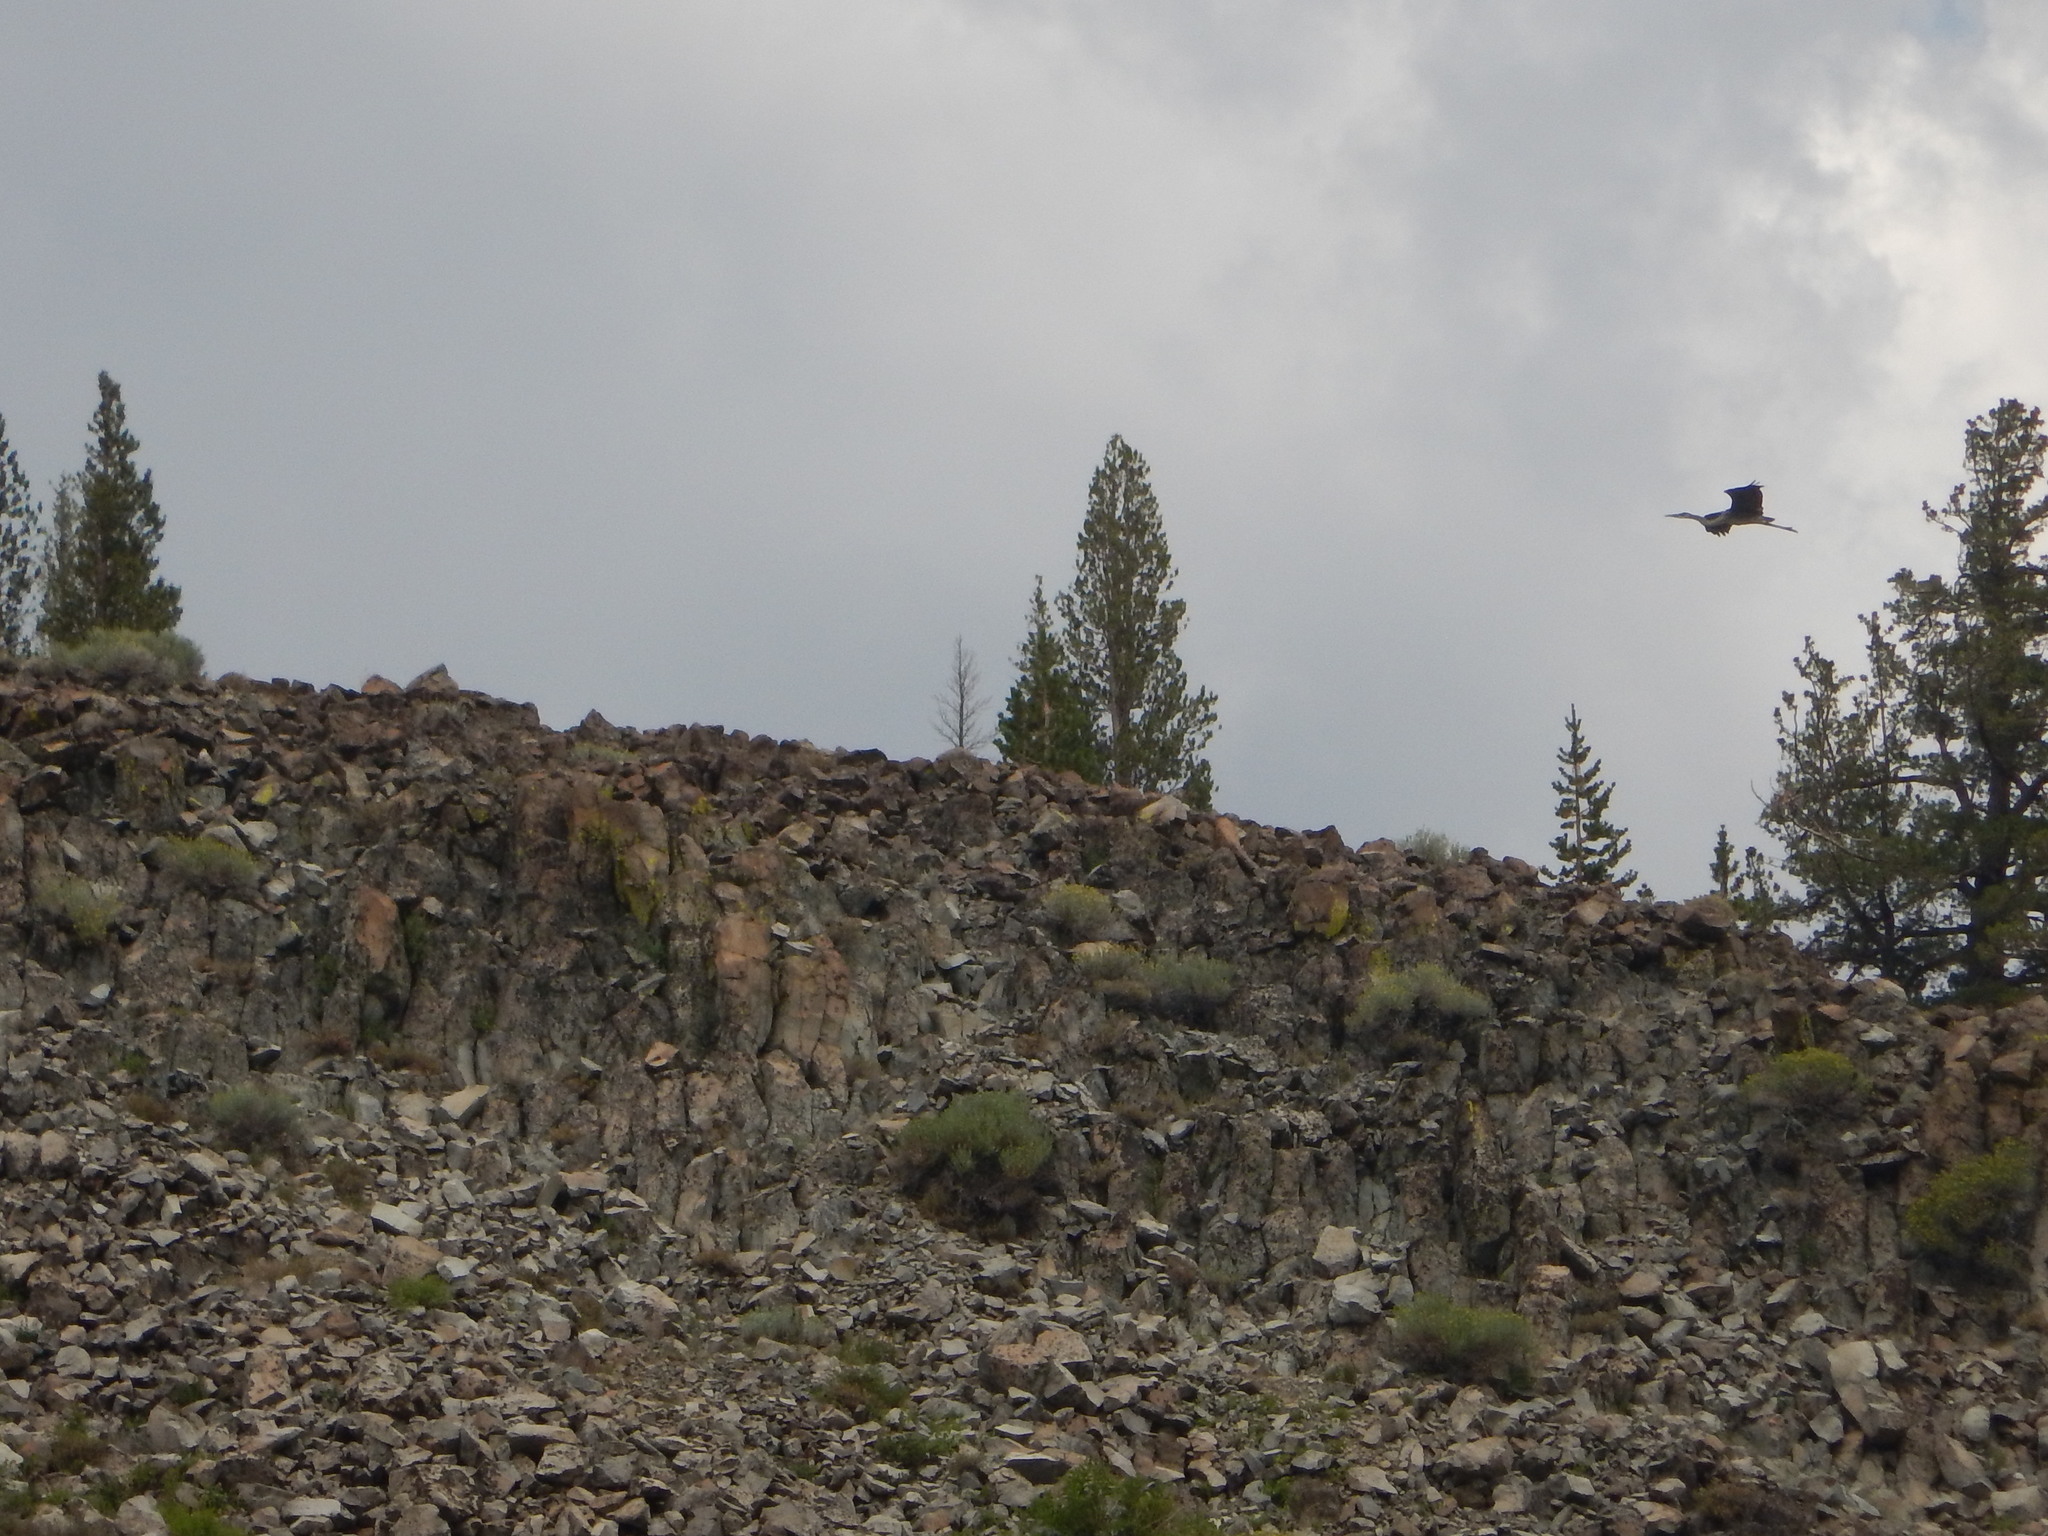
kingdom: Animalia
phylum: Chordata
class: Aves
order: Pelecaniformes
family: Ardeidae
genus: Ardea
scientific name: Ardea herodias
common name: Great blue heron
